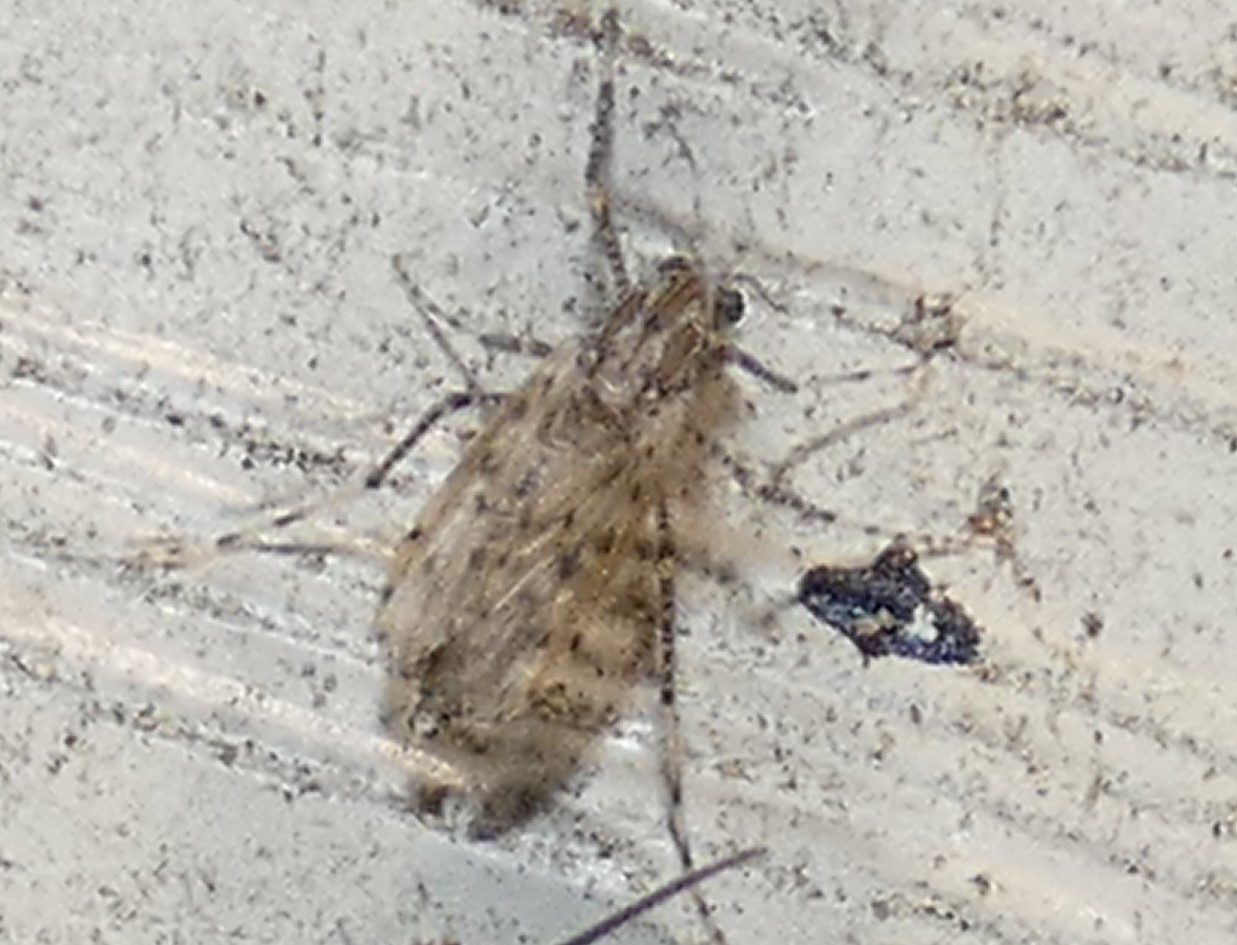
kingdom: Animalia
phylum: Arthropoda
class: Insecta
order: Diptera
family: Chaoboridae
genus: Chaoborus
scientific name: Chaoborus punctipennis
